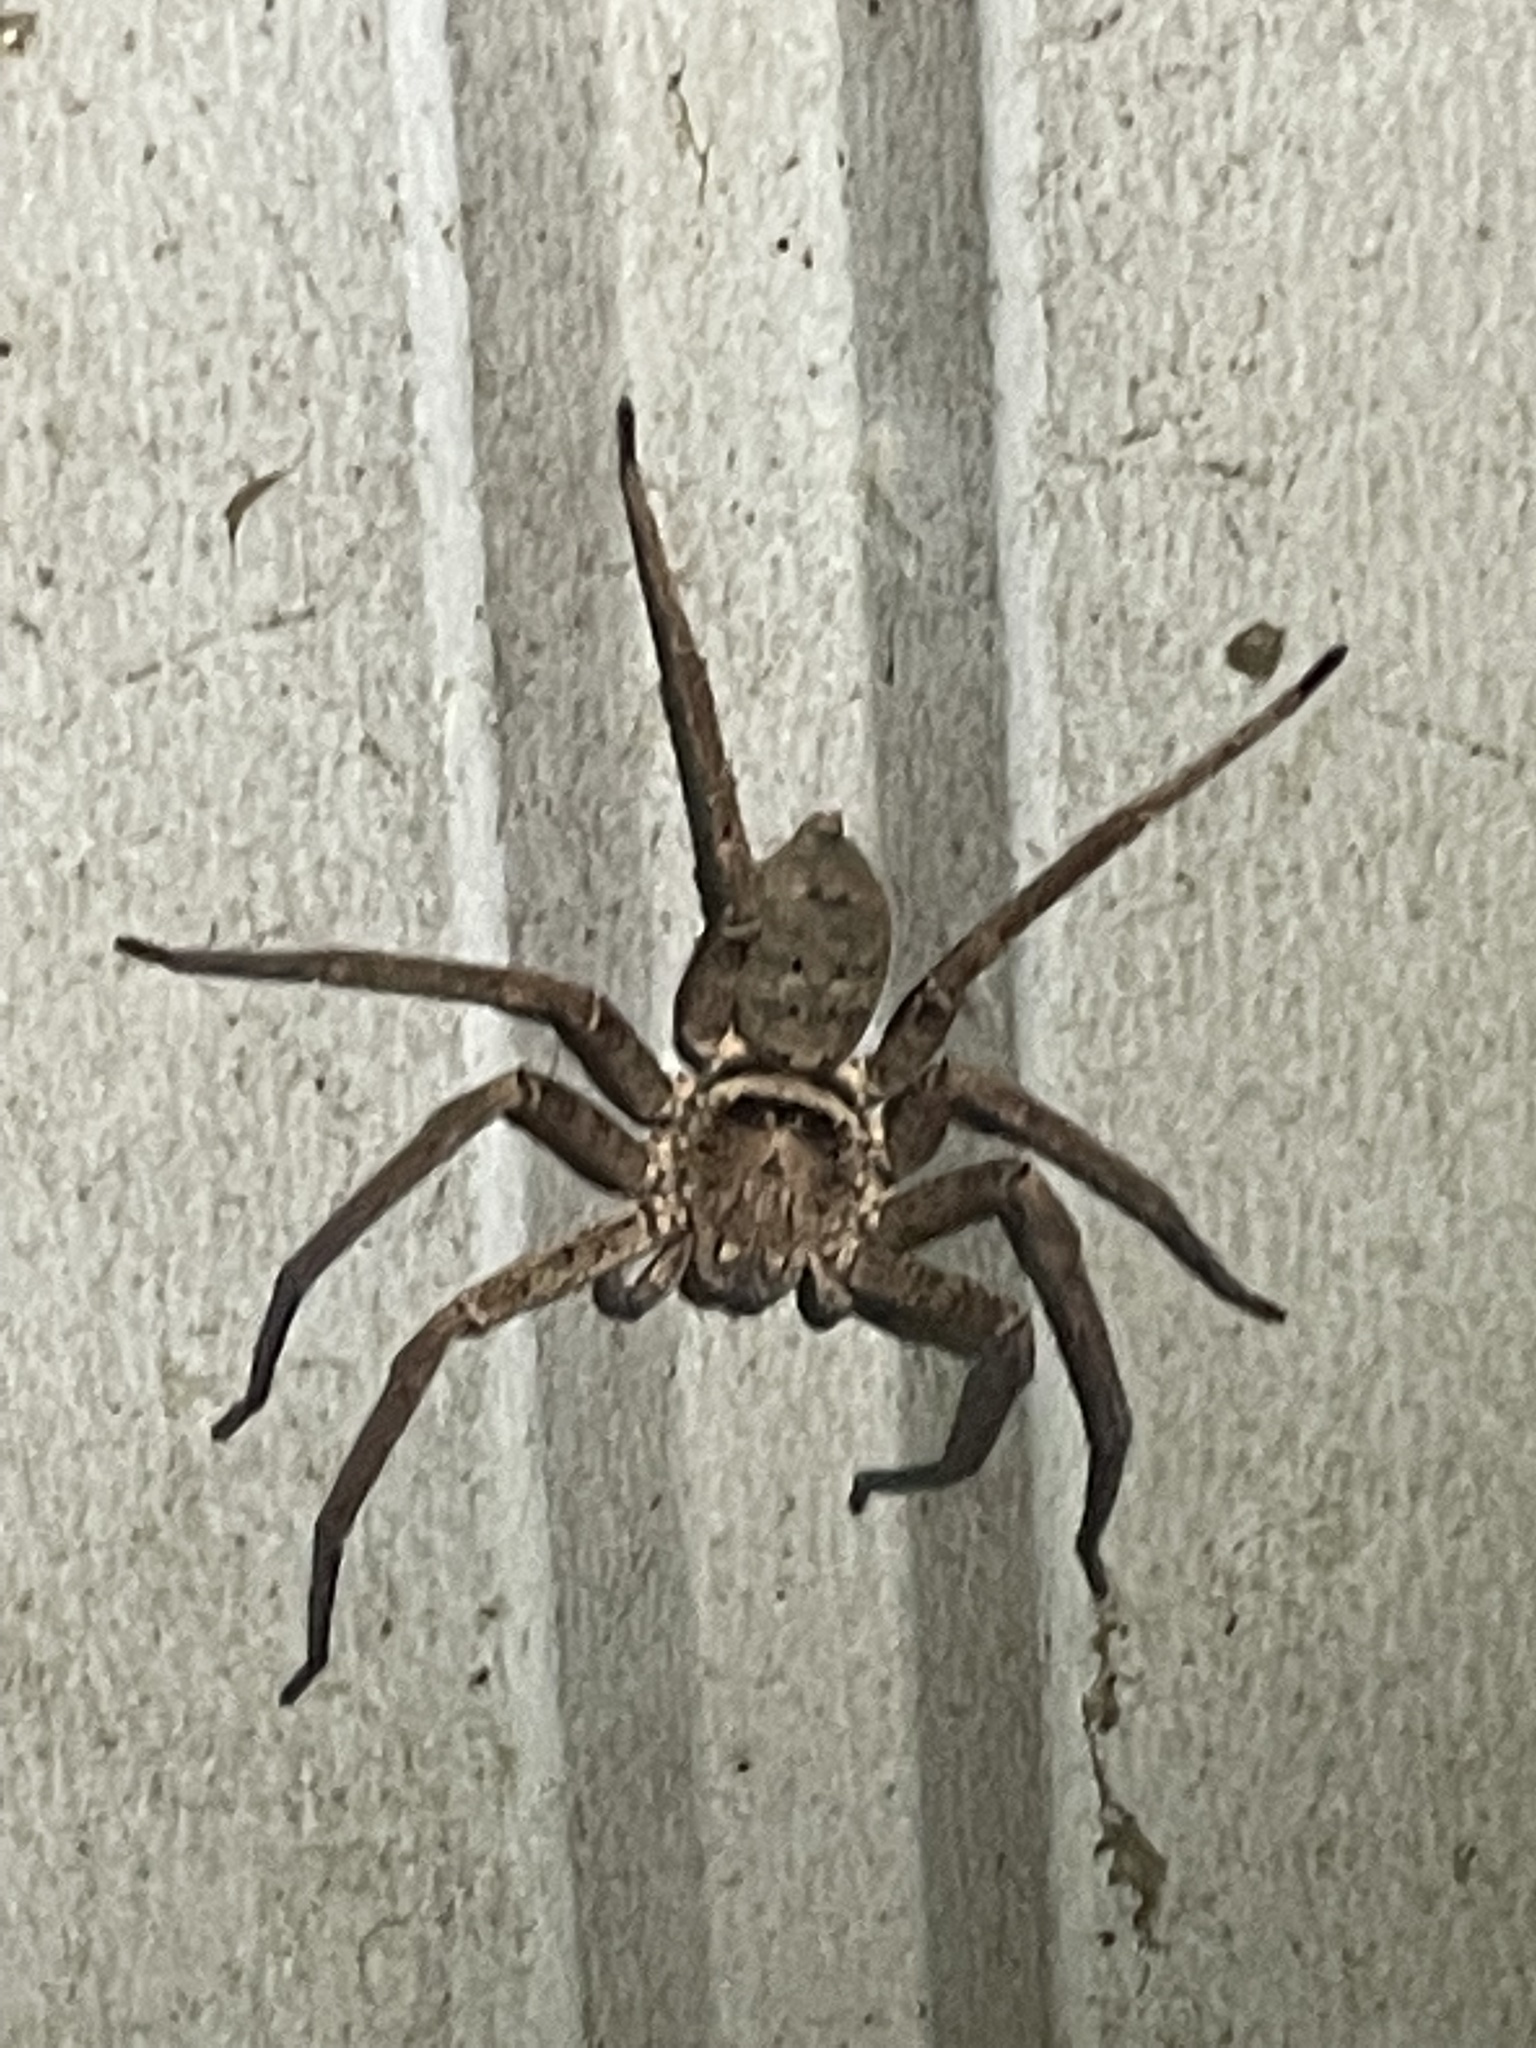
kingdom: Animalia
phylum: Arthropoda
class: Arachnida
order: Araneae
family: Sparassidae
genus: Heteropoda
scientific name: Heteropoda jugulans
